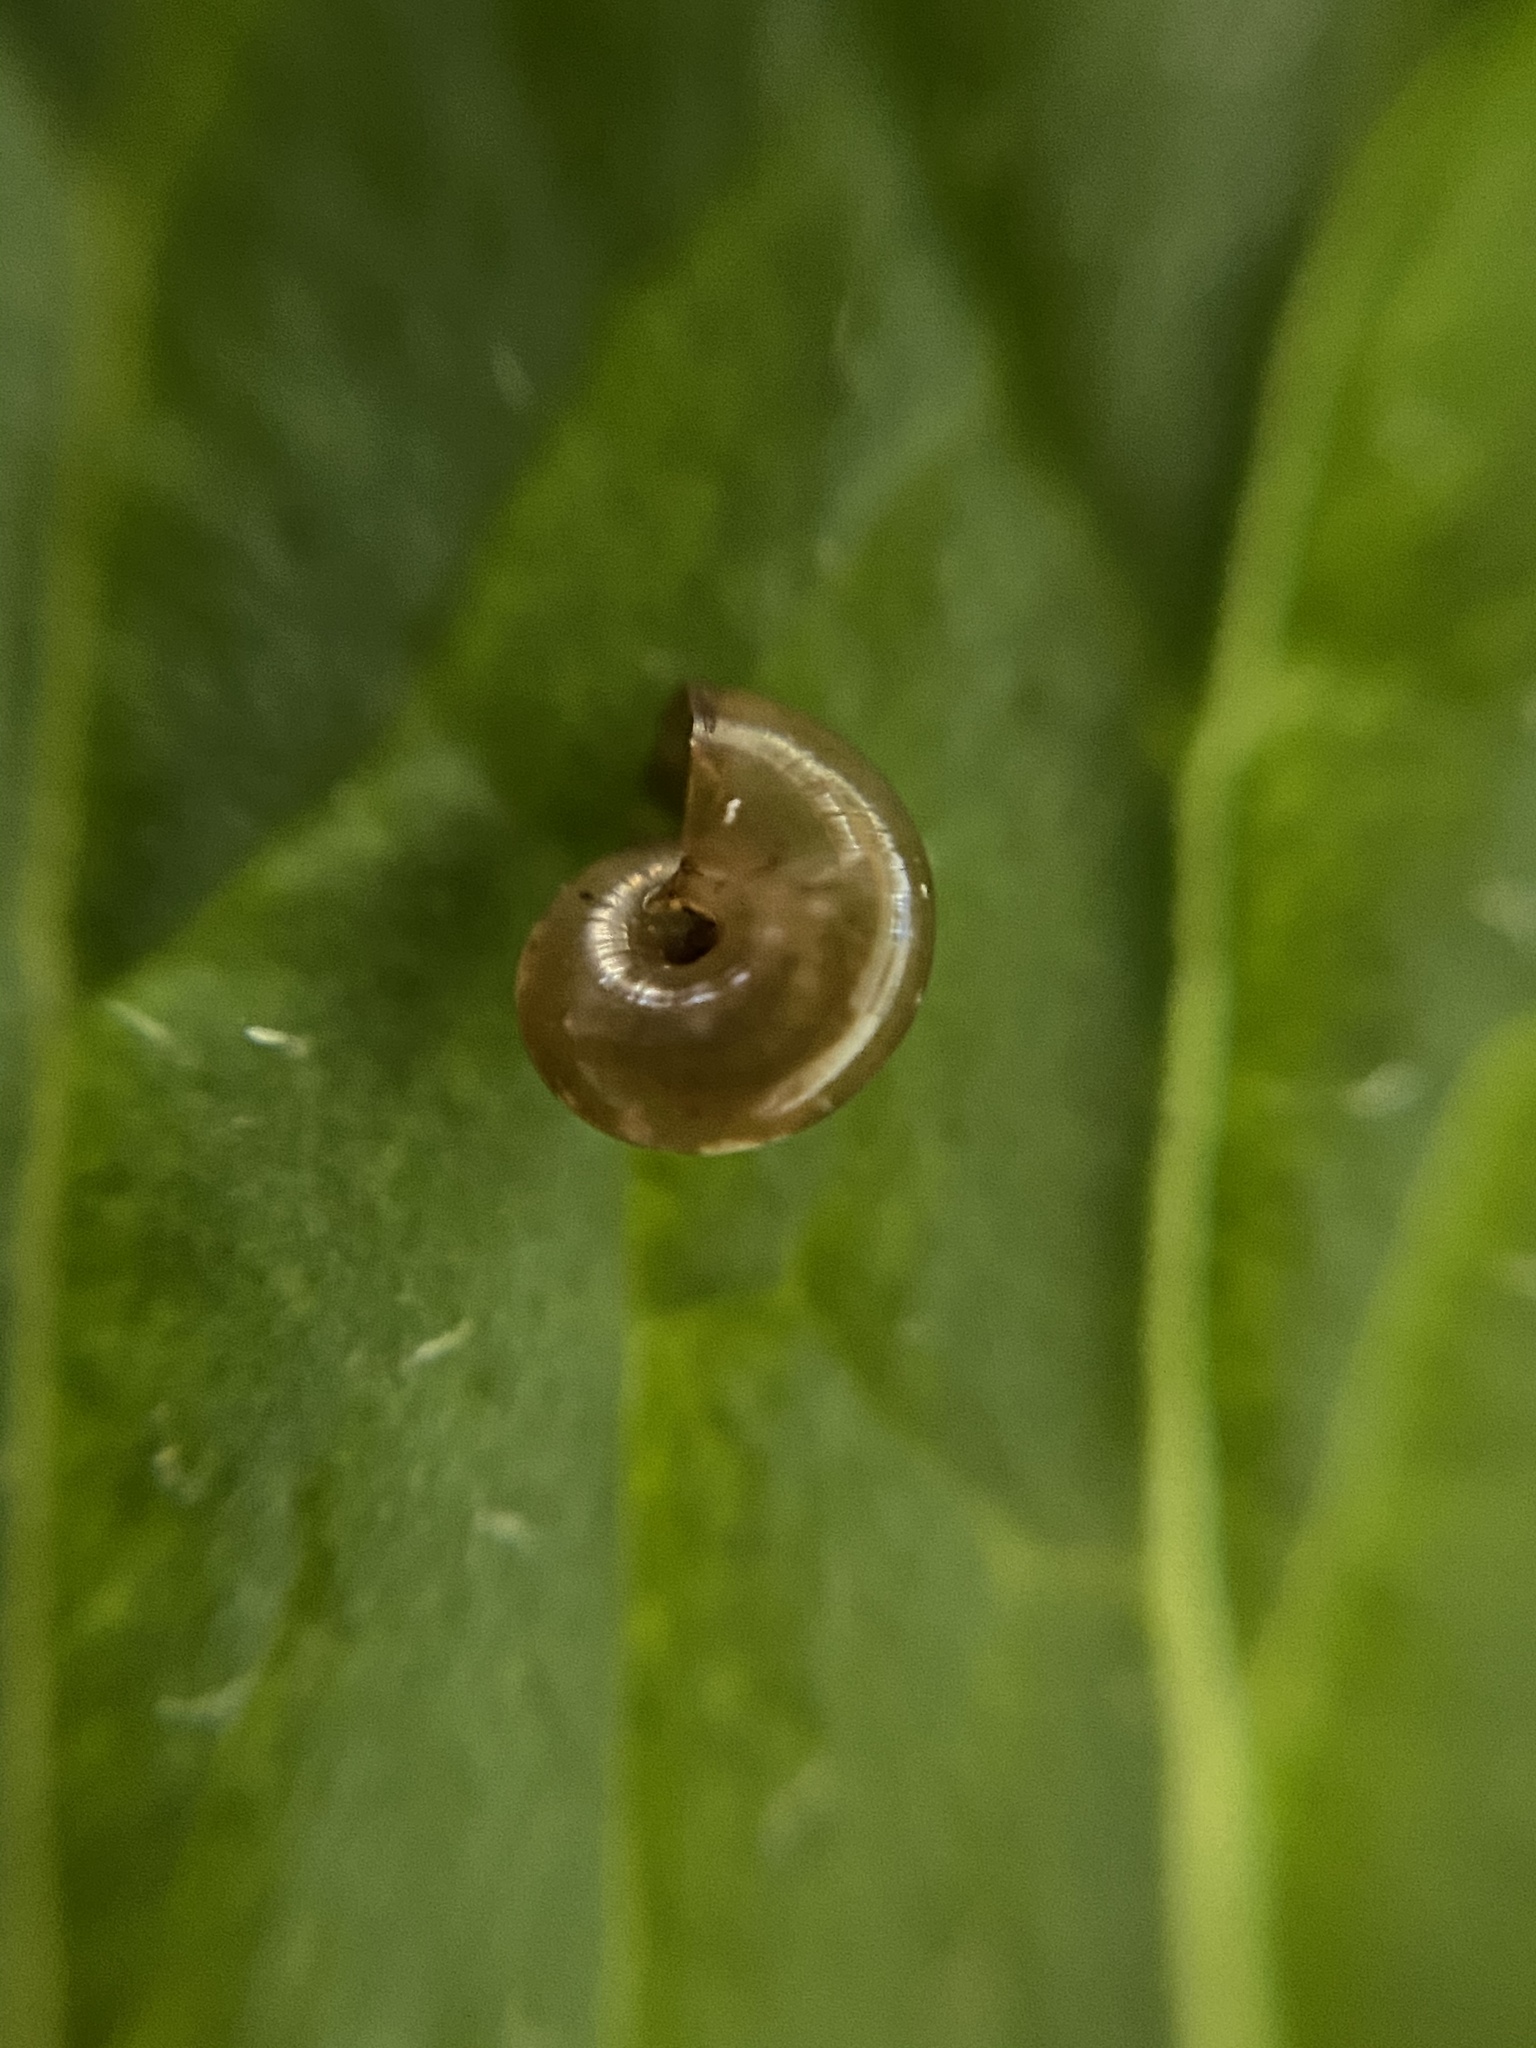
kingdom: Animalia
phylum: Mollusca
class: Gastropoda
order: Stylommatophora
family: Gastrodontidae
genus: Zonitoides
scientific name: Zonitoides arboreus
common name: Quick gloss
